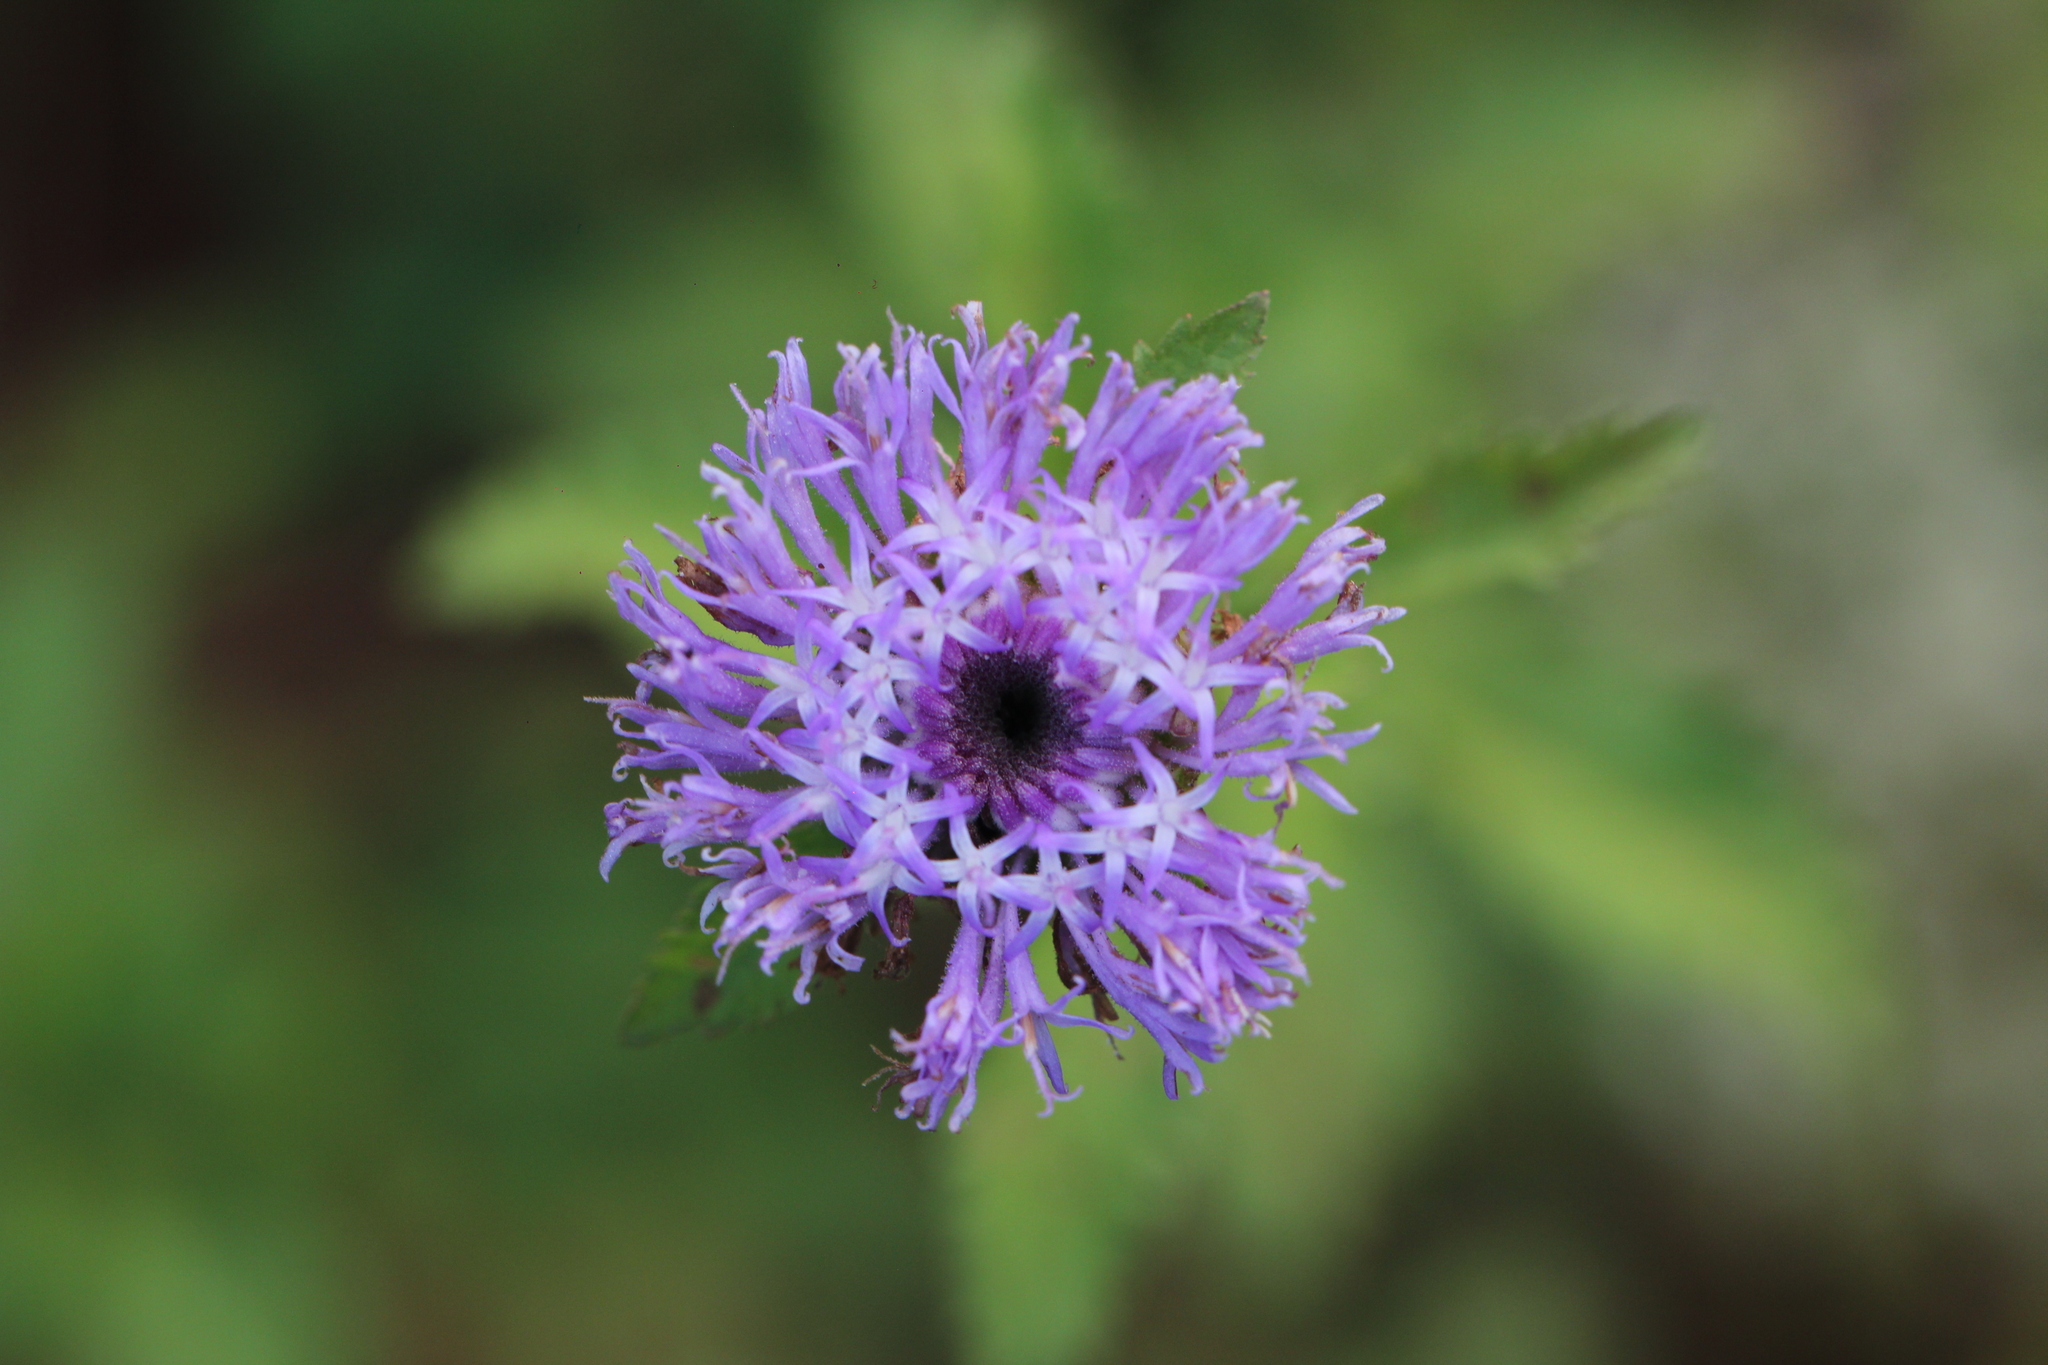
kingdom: Plantae
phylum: Tracheophyta
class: Magnoliopsida
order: Asterales
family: Asteraceae
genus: Centratherum
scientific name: Centratherum punctatum
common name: Larkdaisy
